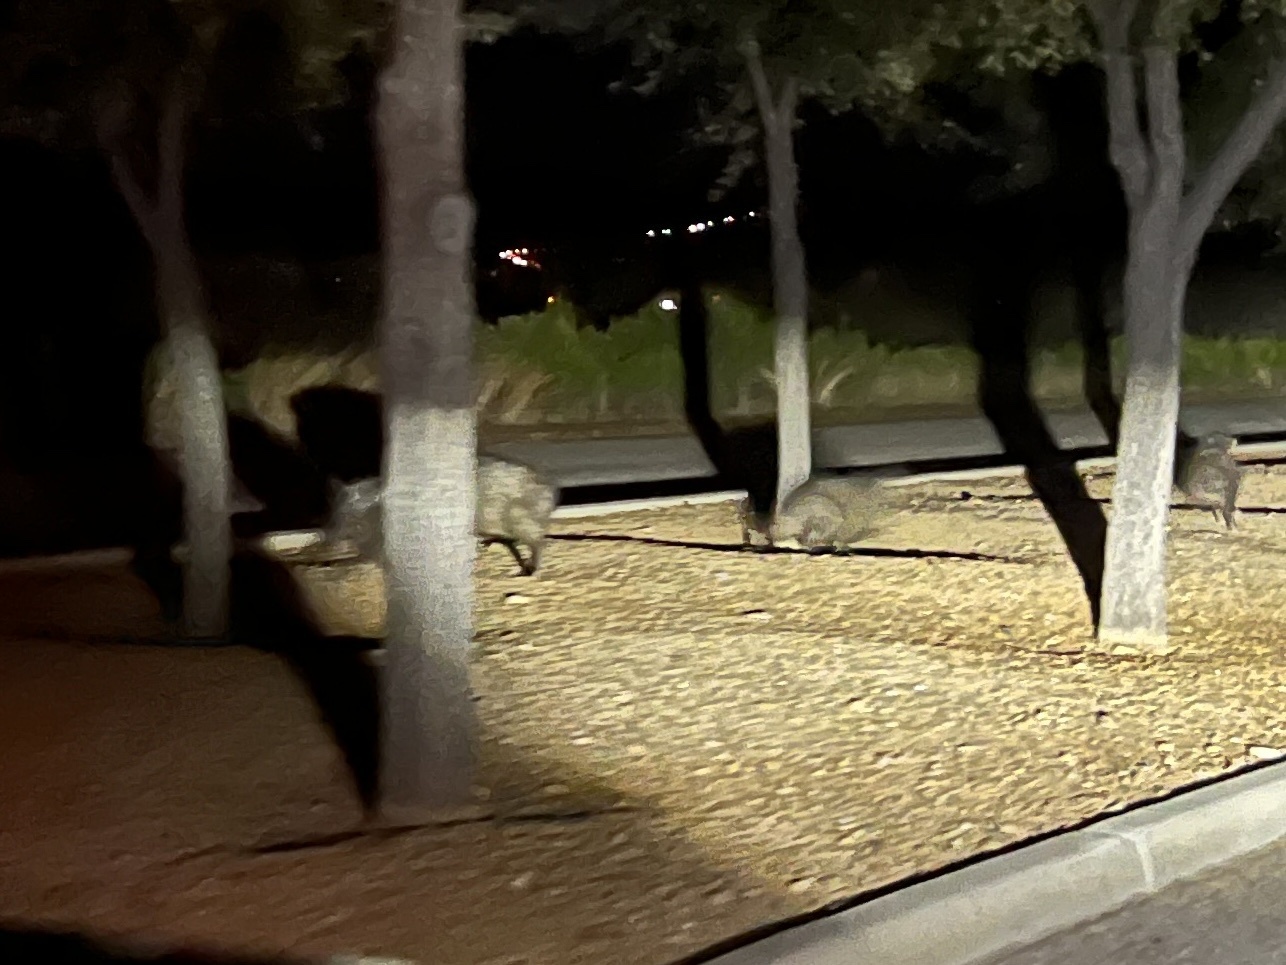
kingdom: Animalia
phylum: Chordata
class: Mammalia
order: Artiodactyla
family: Tayassuidae
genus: Pecari
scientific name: Pecari tajacu
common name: Collared peccary
